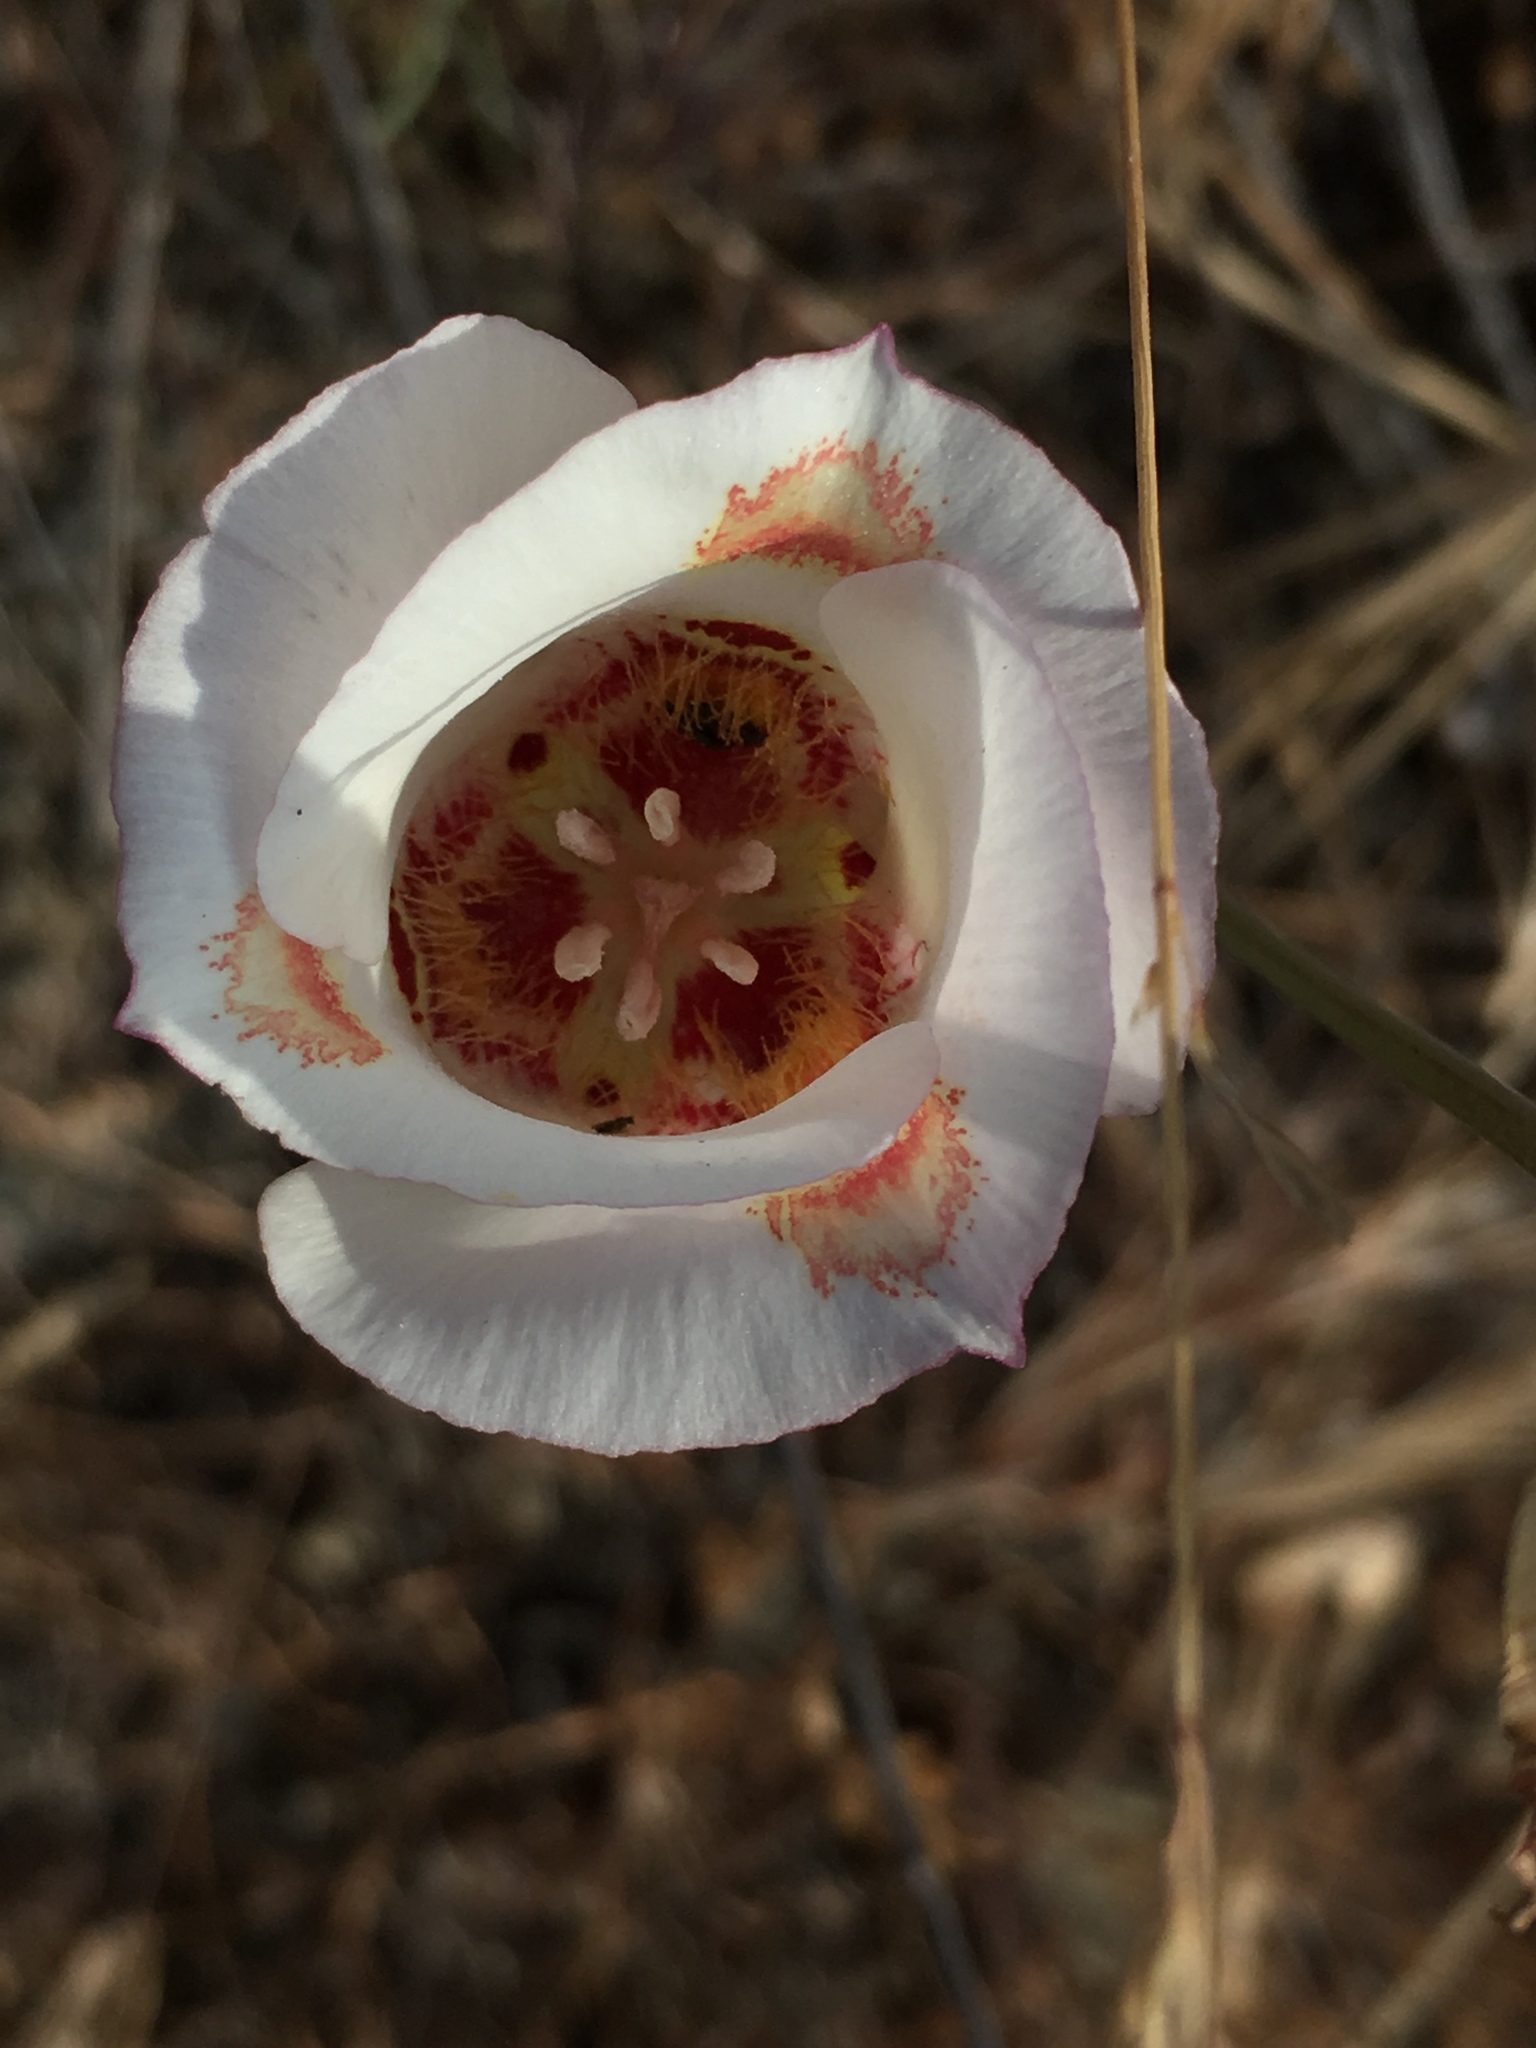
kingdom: Plantae
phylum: Tracheophyta
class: Liliopsida
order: Liliales
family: Liliaceae
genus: Calochortus
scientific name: Calochortus venustus
